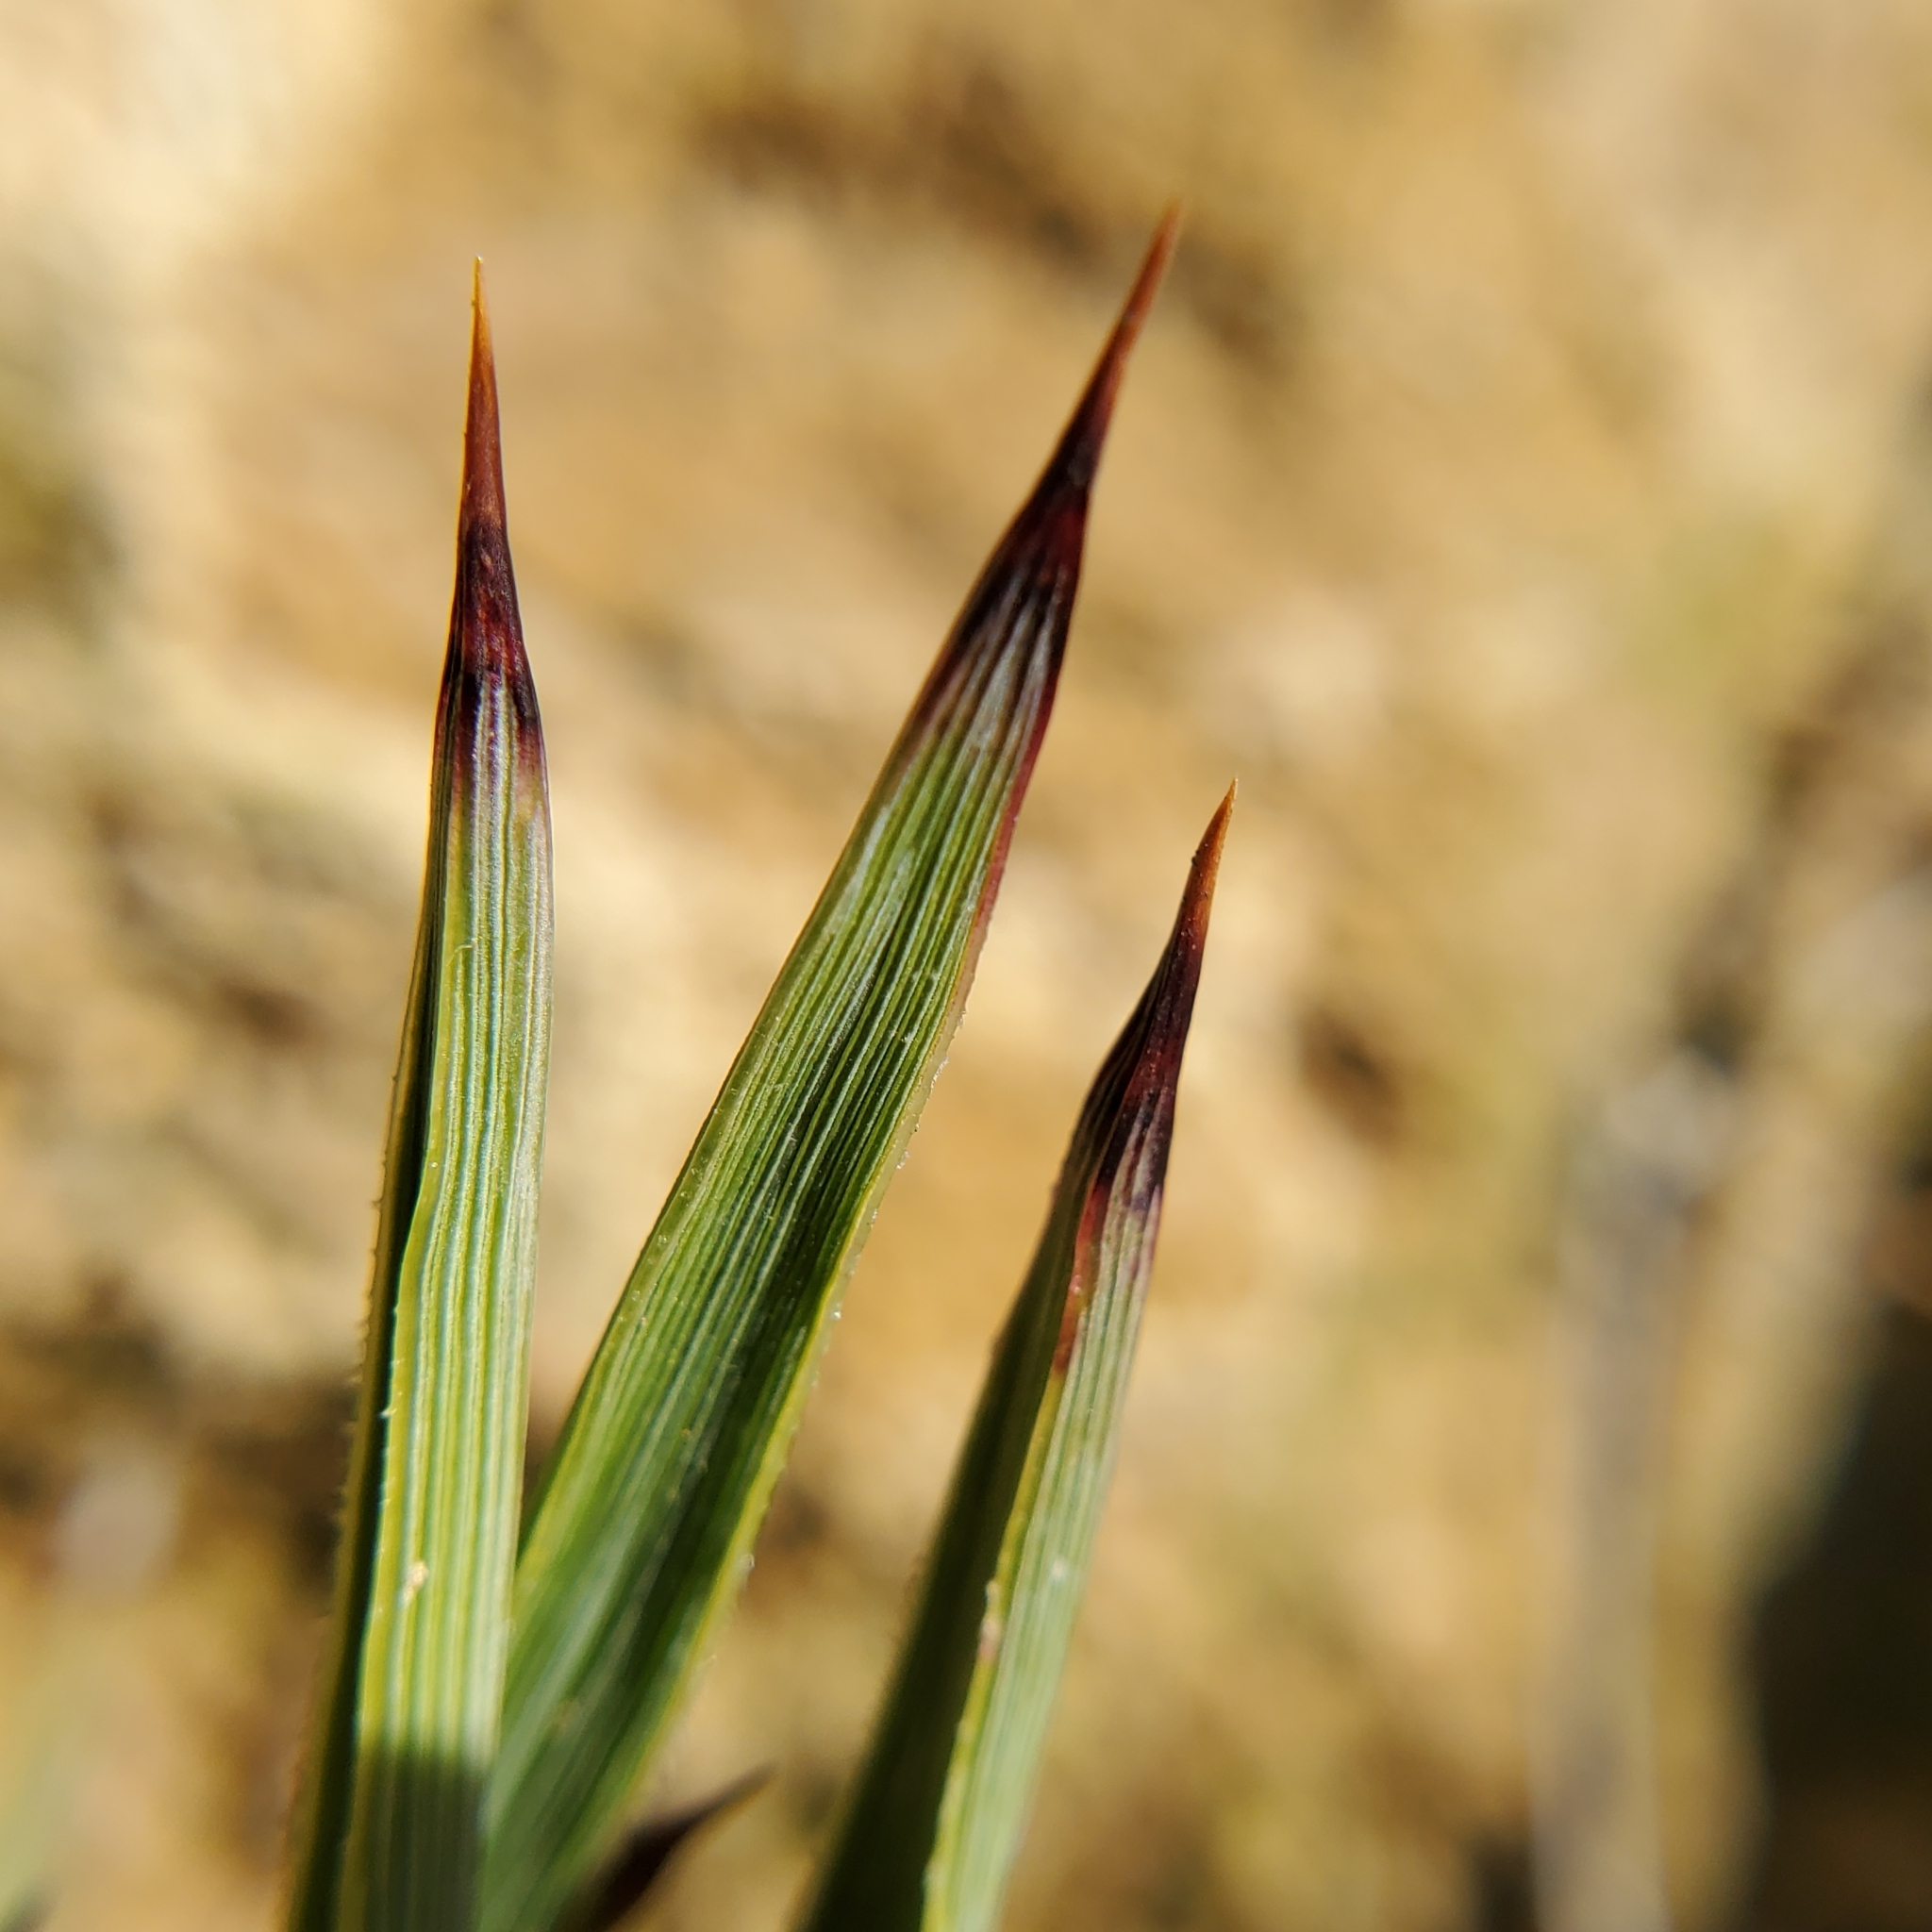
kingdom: Plantae
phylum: Tracheophyta
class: Liliopsida
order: Asparagales
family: Asparagaceae
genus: Hesperoyucca
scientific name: Hesperoyucca whipplei
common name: Our lord's-candle
